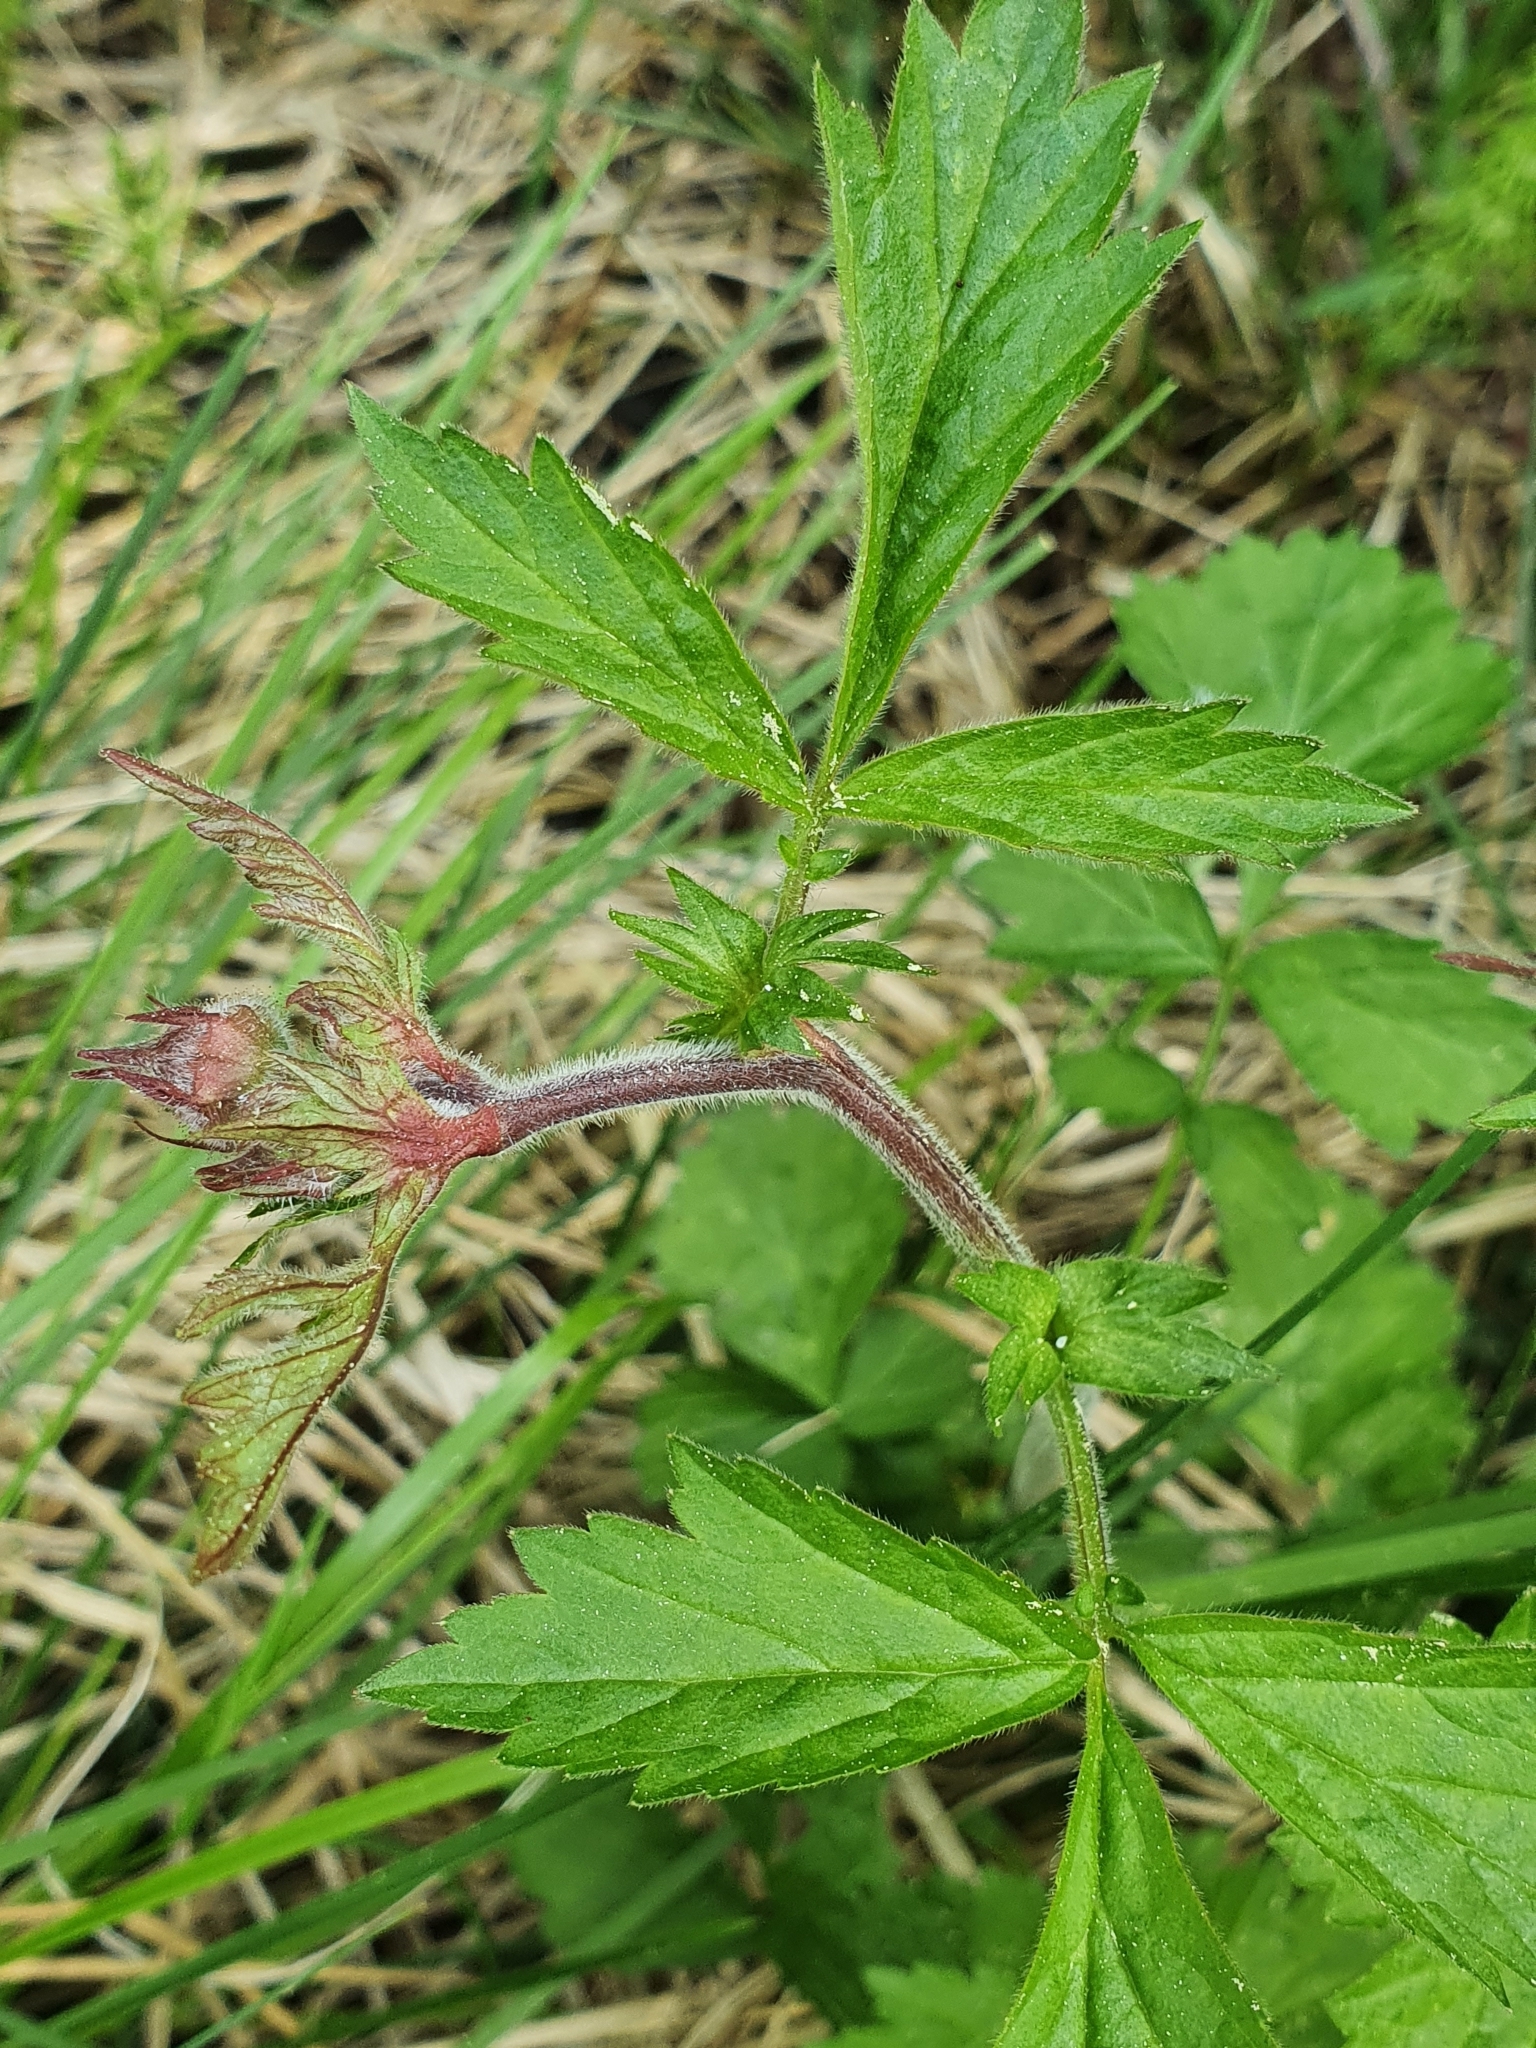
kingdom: Plantae
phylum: Tracheophyta
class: Magnoliopsida
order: Rosales
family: Rosaceae
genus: Geum
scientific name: Geum rivale
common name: Water avens
